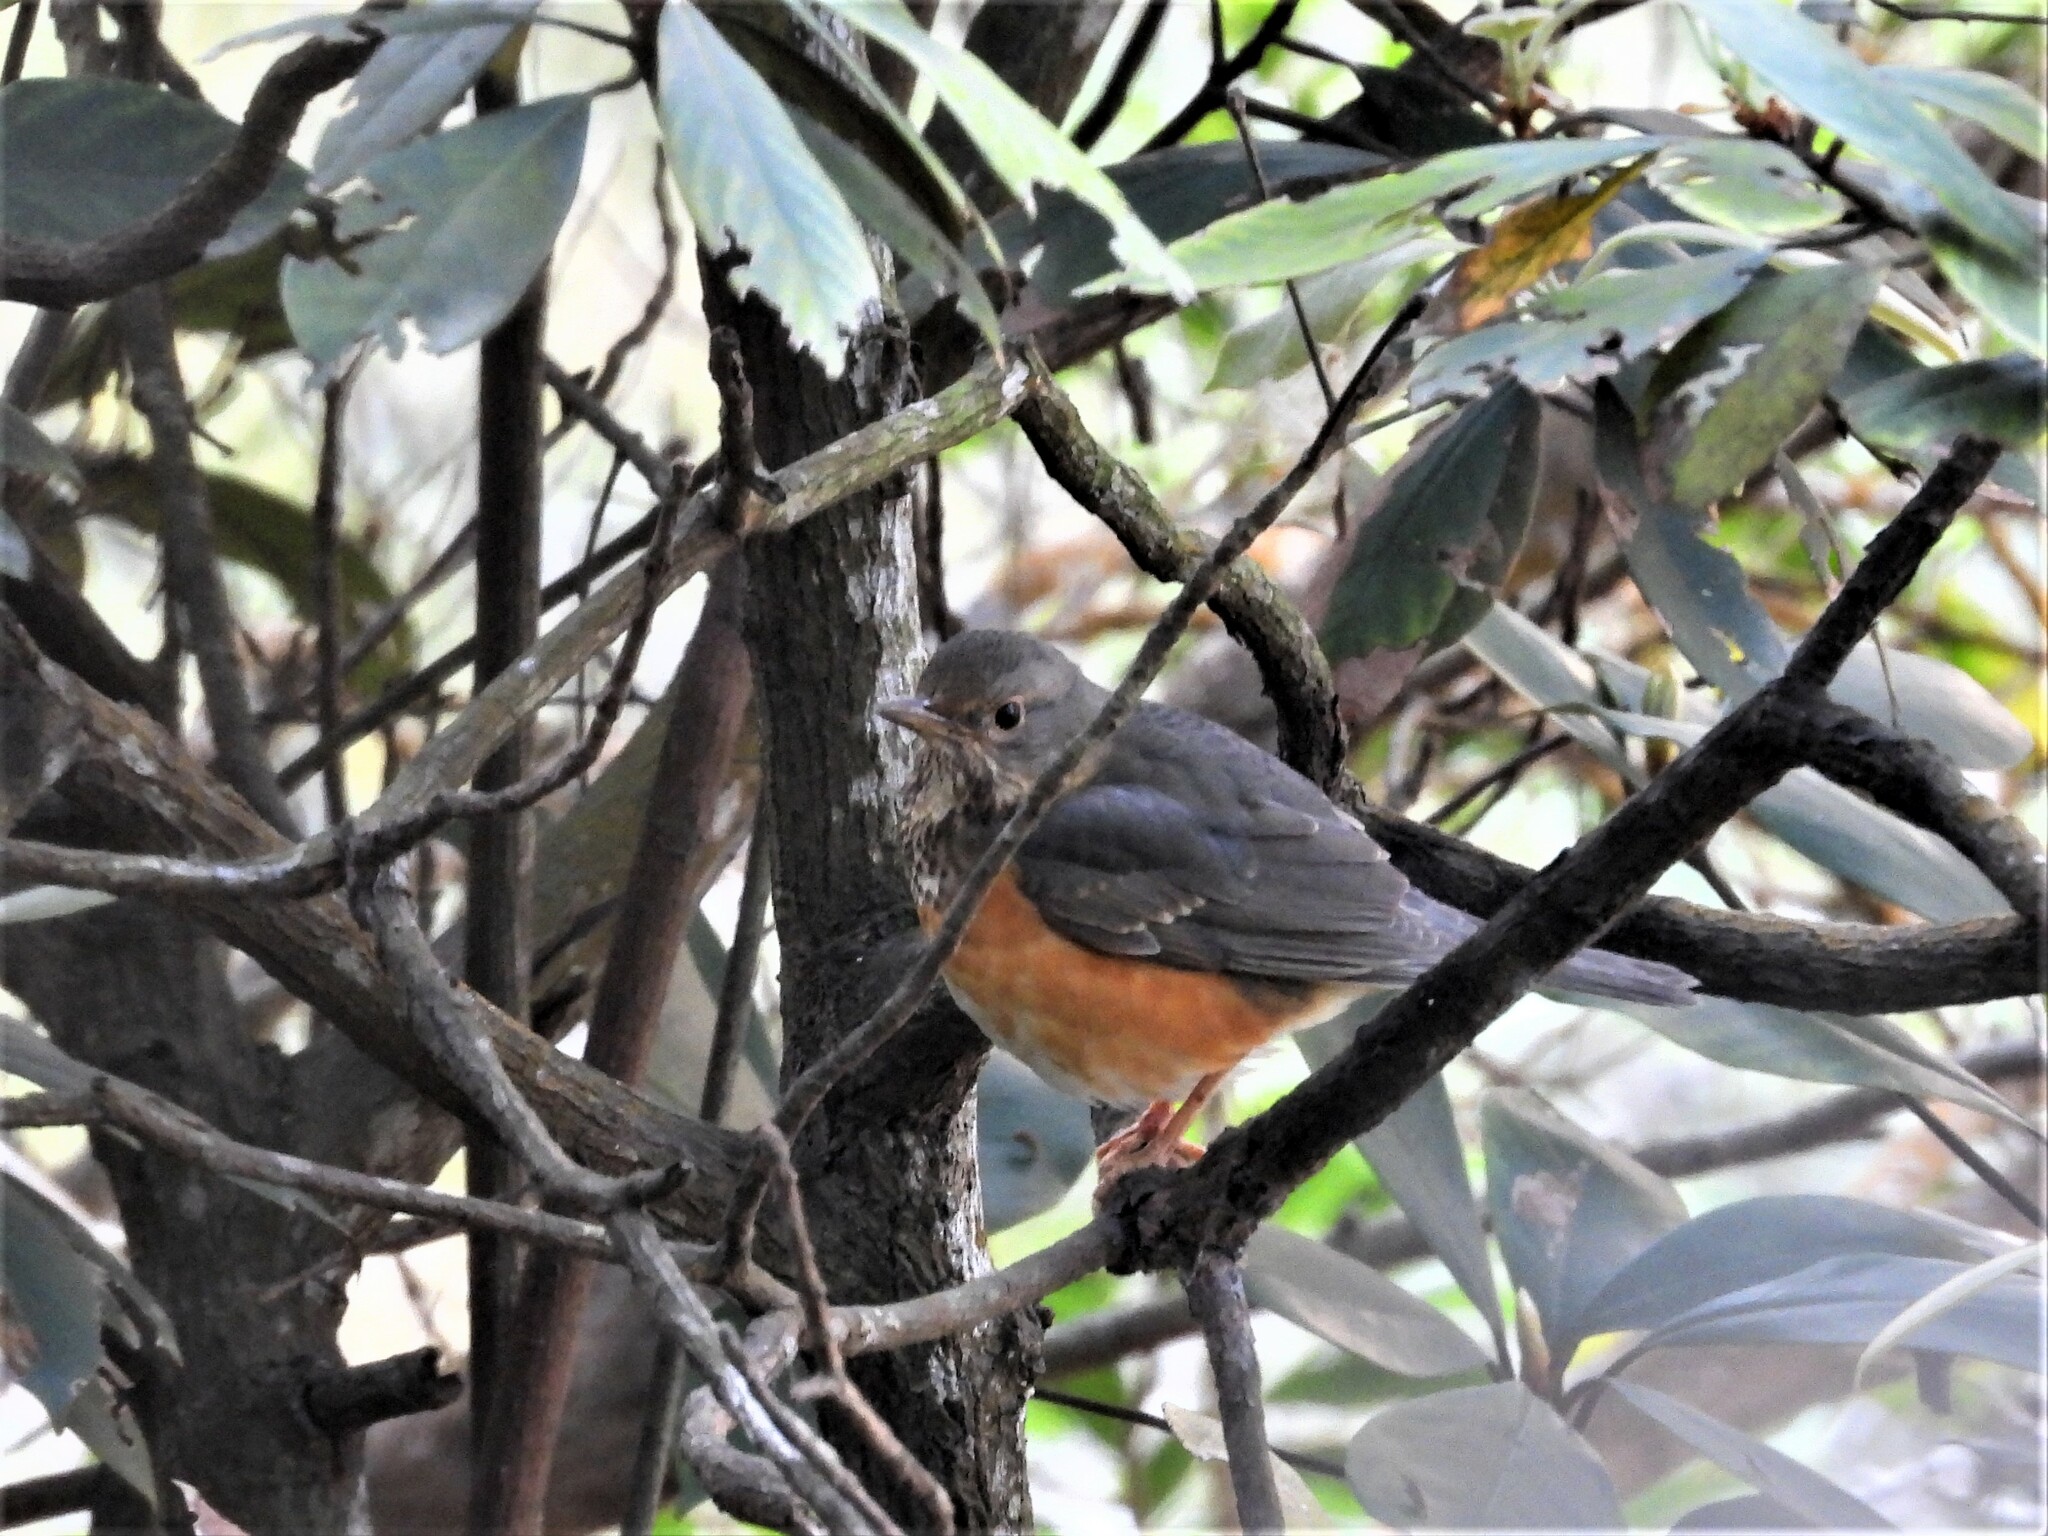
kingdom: Animalia
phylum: Chordata
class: Aves
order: Passeriformes
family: Turdidae
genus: Turdus
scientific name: Turdus hortulorum
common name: Grey-backed thrush
